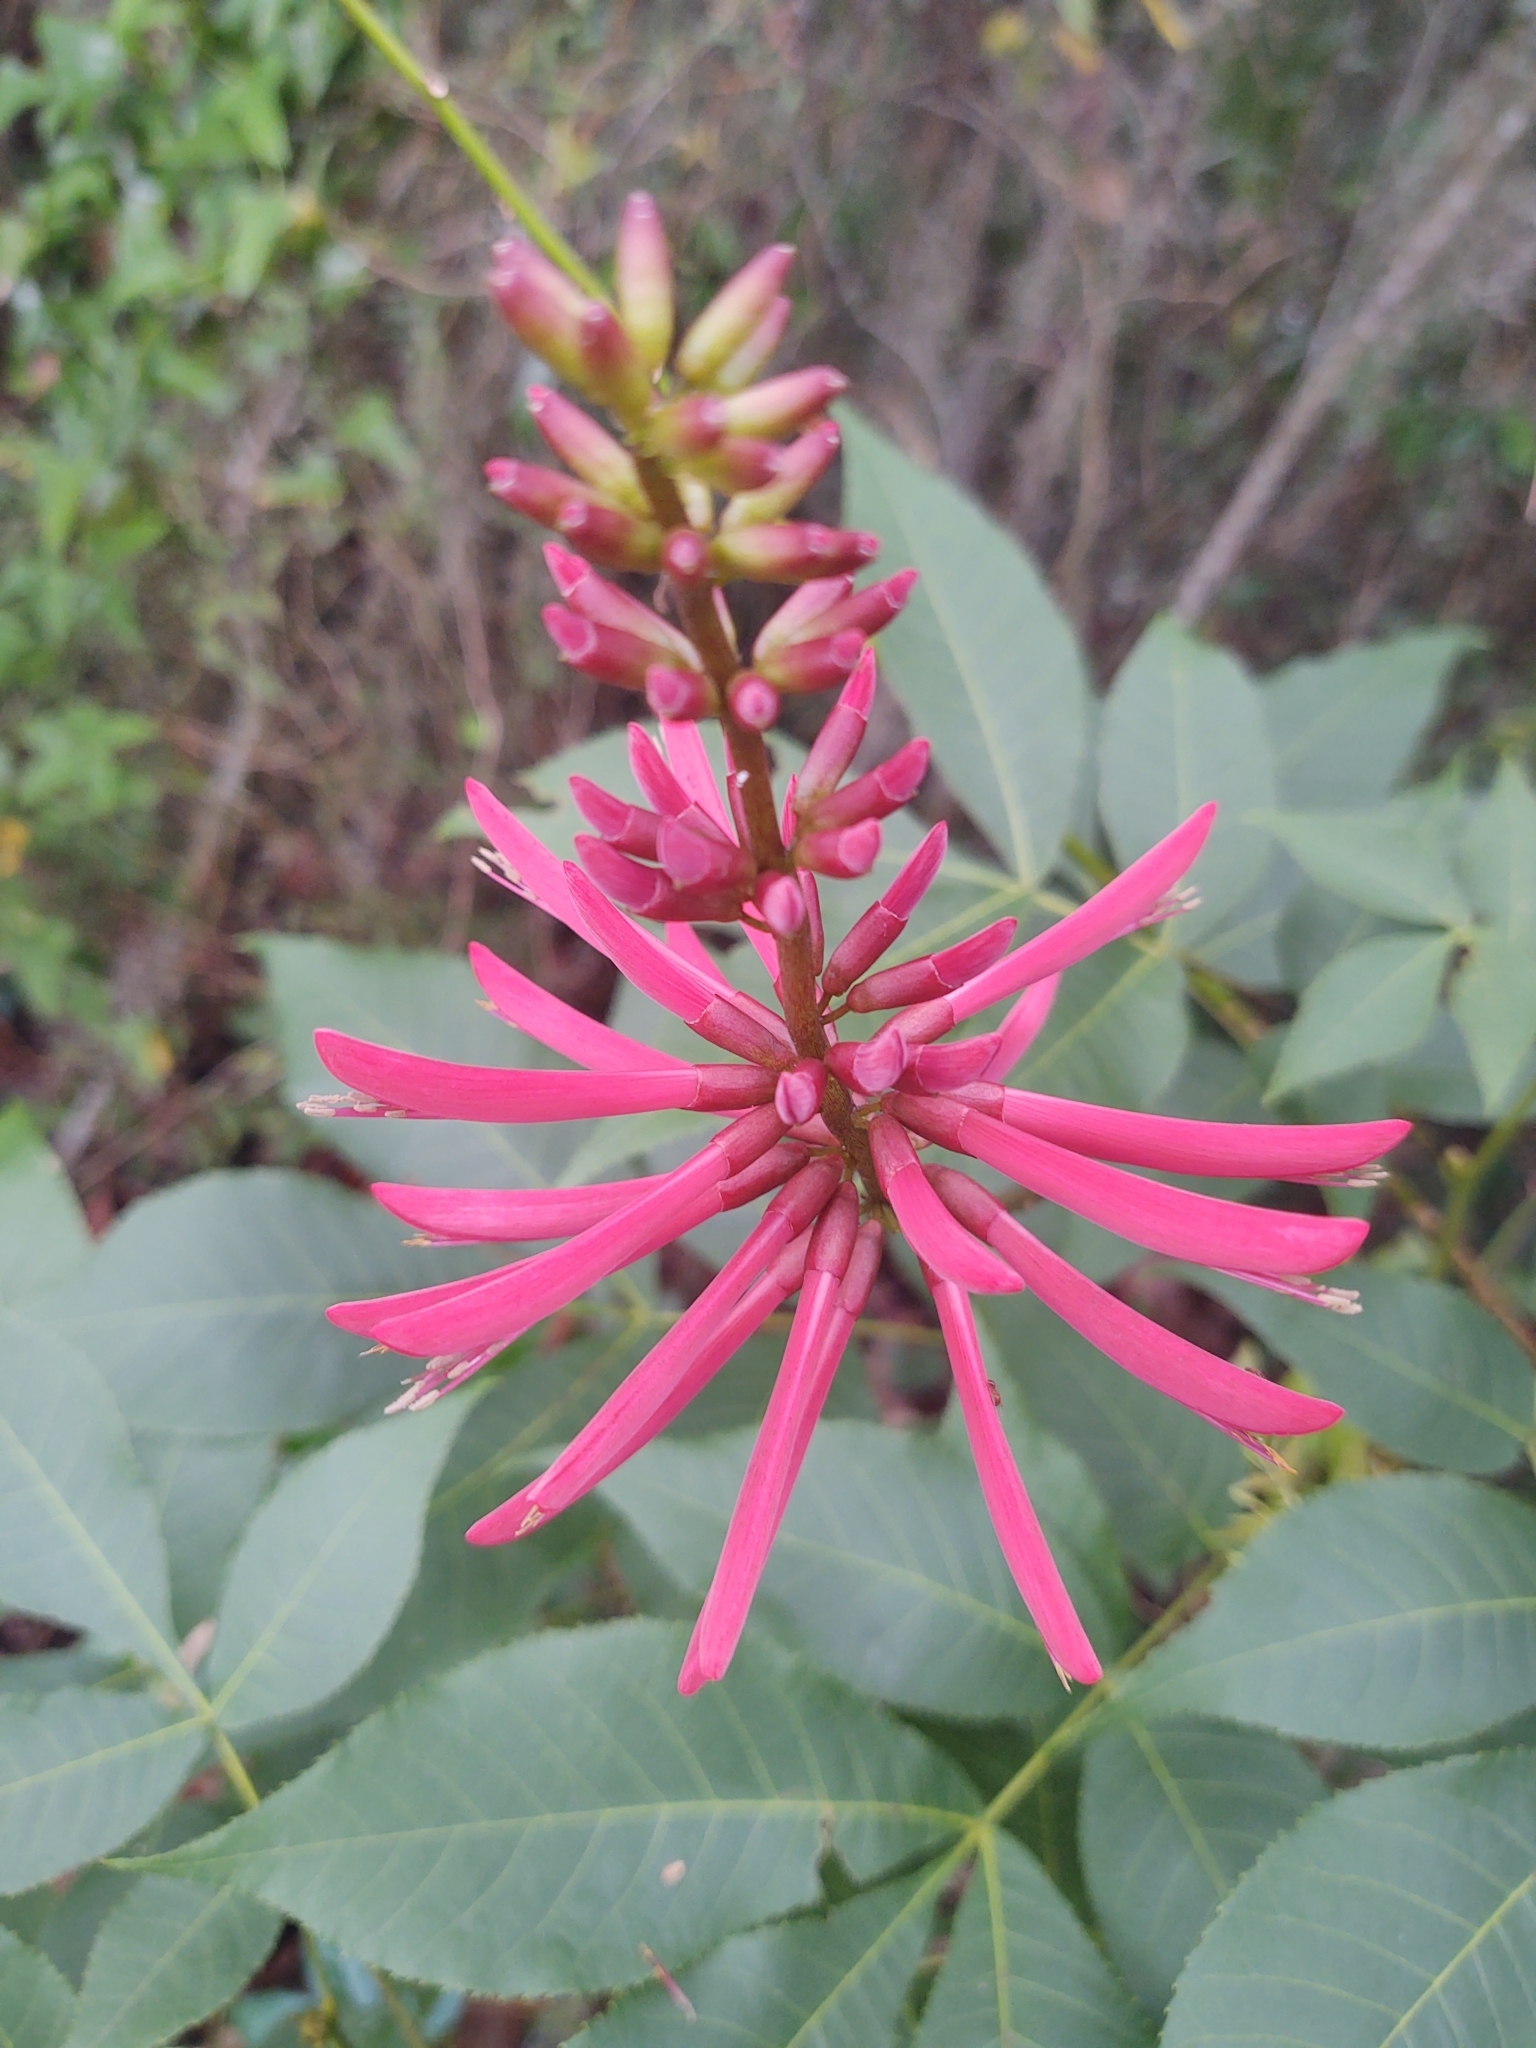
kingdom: Plantae
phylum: Tracheophyta
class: Magnoliopsida
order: Fabales
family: Fabaceae
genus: Erythrina
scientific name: Erythrina herbacea
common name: Coral-bean
